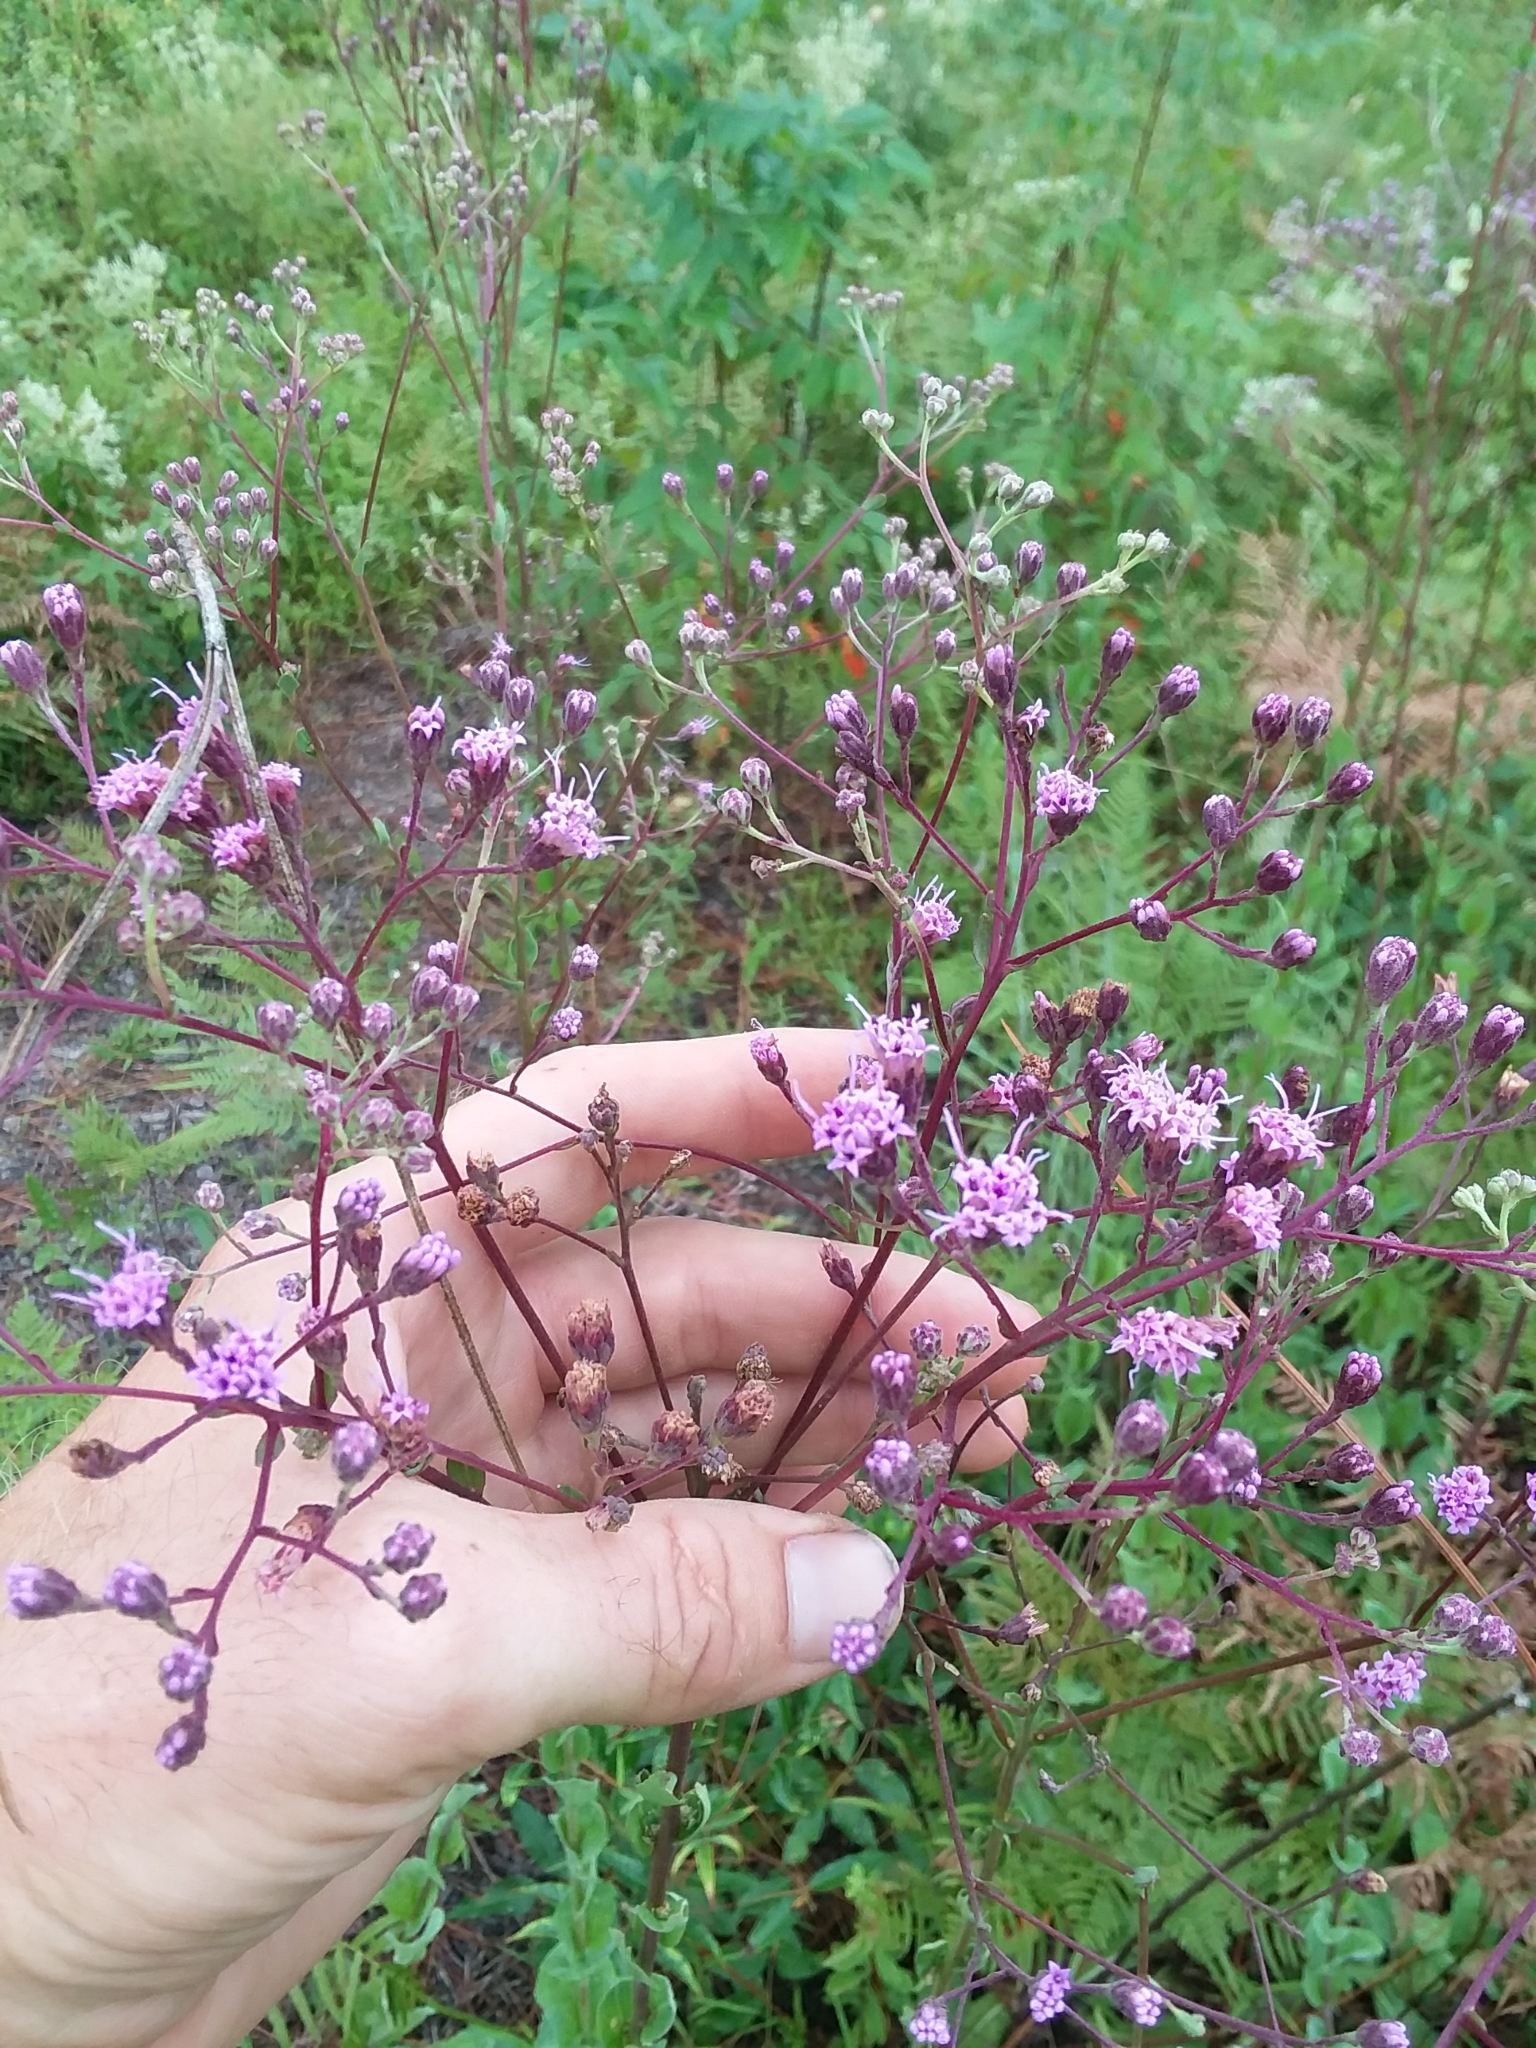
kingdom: Plantae
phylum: Tracheophyta
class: Magnoliopsida
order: Asterales
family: Asteraceae
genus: Carphephorus
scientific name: Carphephorus odoratissimus
